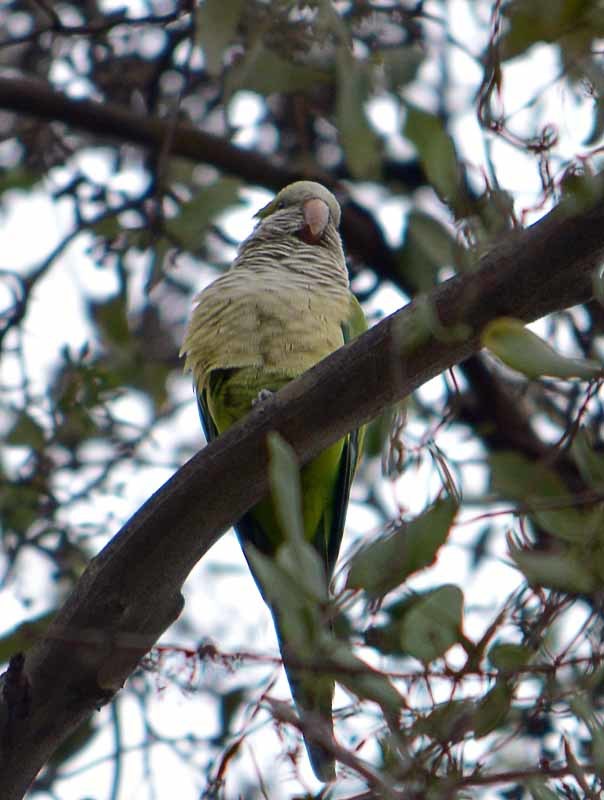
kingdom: Animalia
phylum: Chordata
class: Aves
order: Psittaciformes
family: Psittacidae
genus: Myiopsitta
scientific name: Myiopsitta monachus
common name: Monk parakeet
